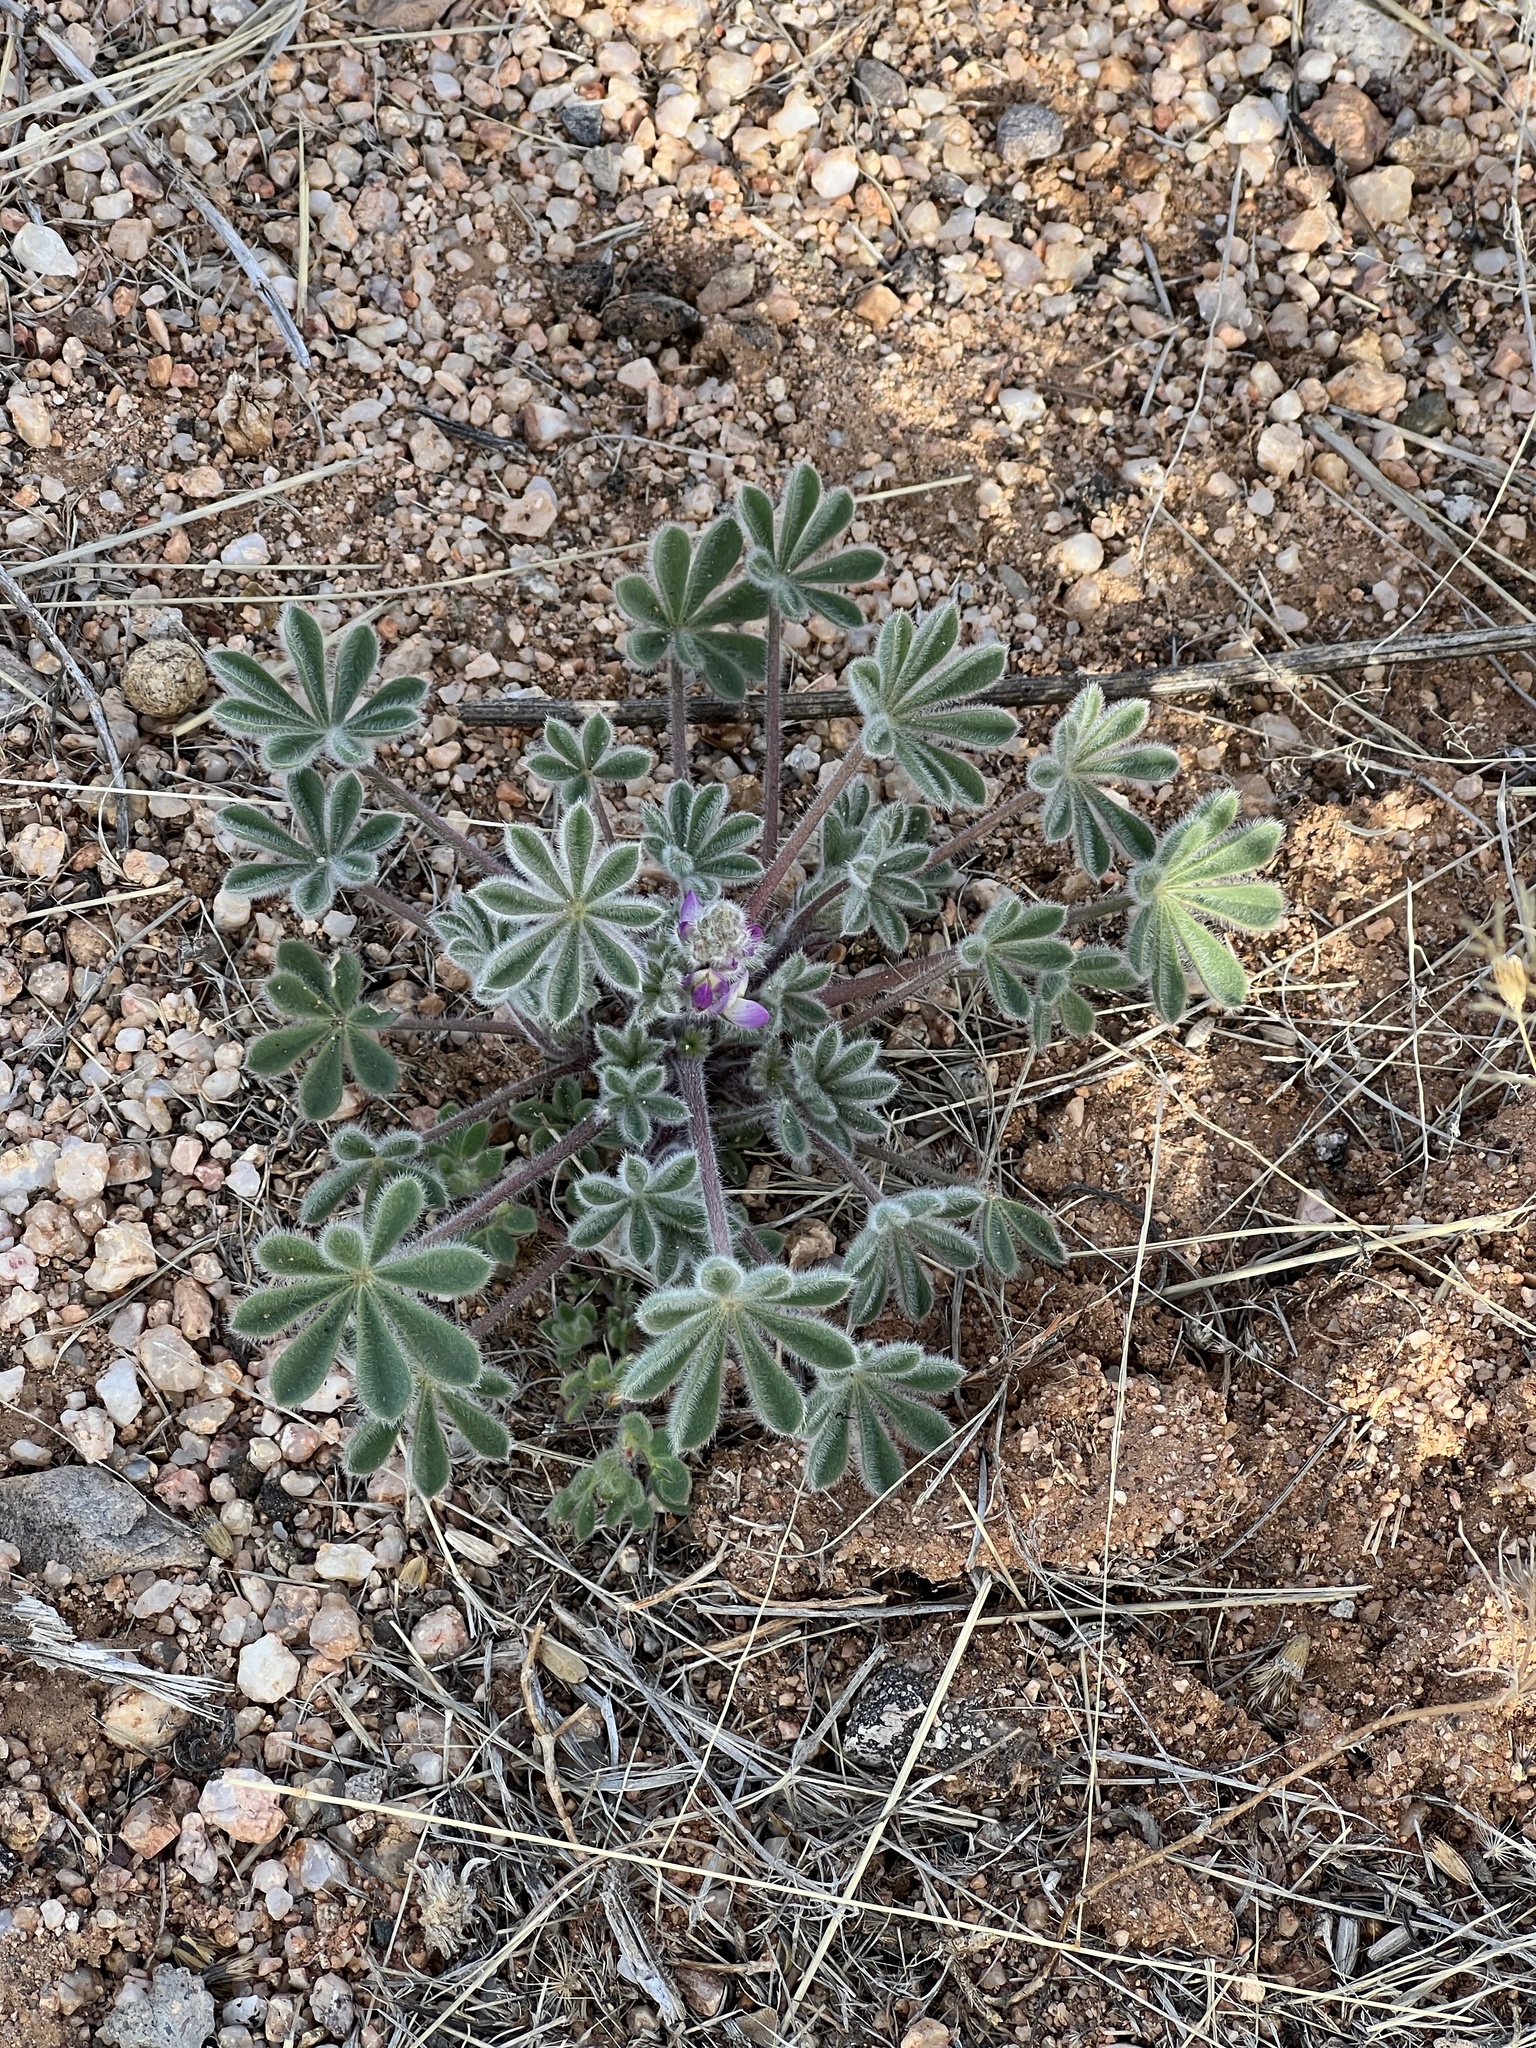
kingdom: Plantae
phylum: Tracheophyta
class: Magnoliopsida
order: Fabales
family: Fabaceae
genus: Lupinus
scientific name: Lupinus concinnus
